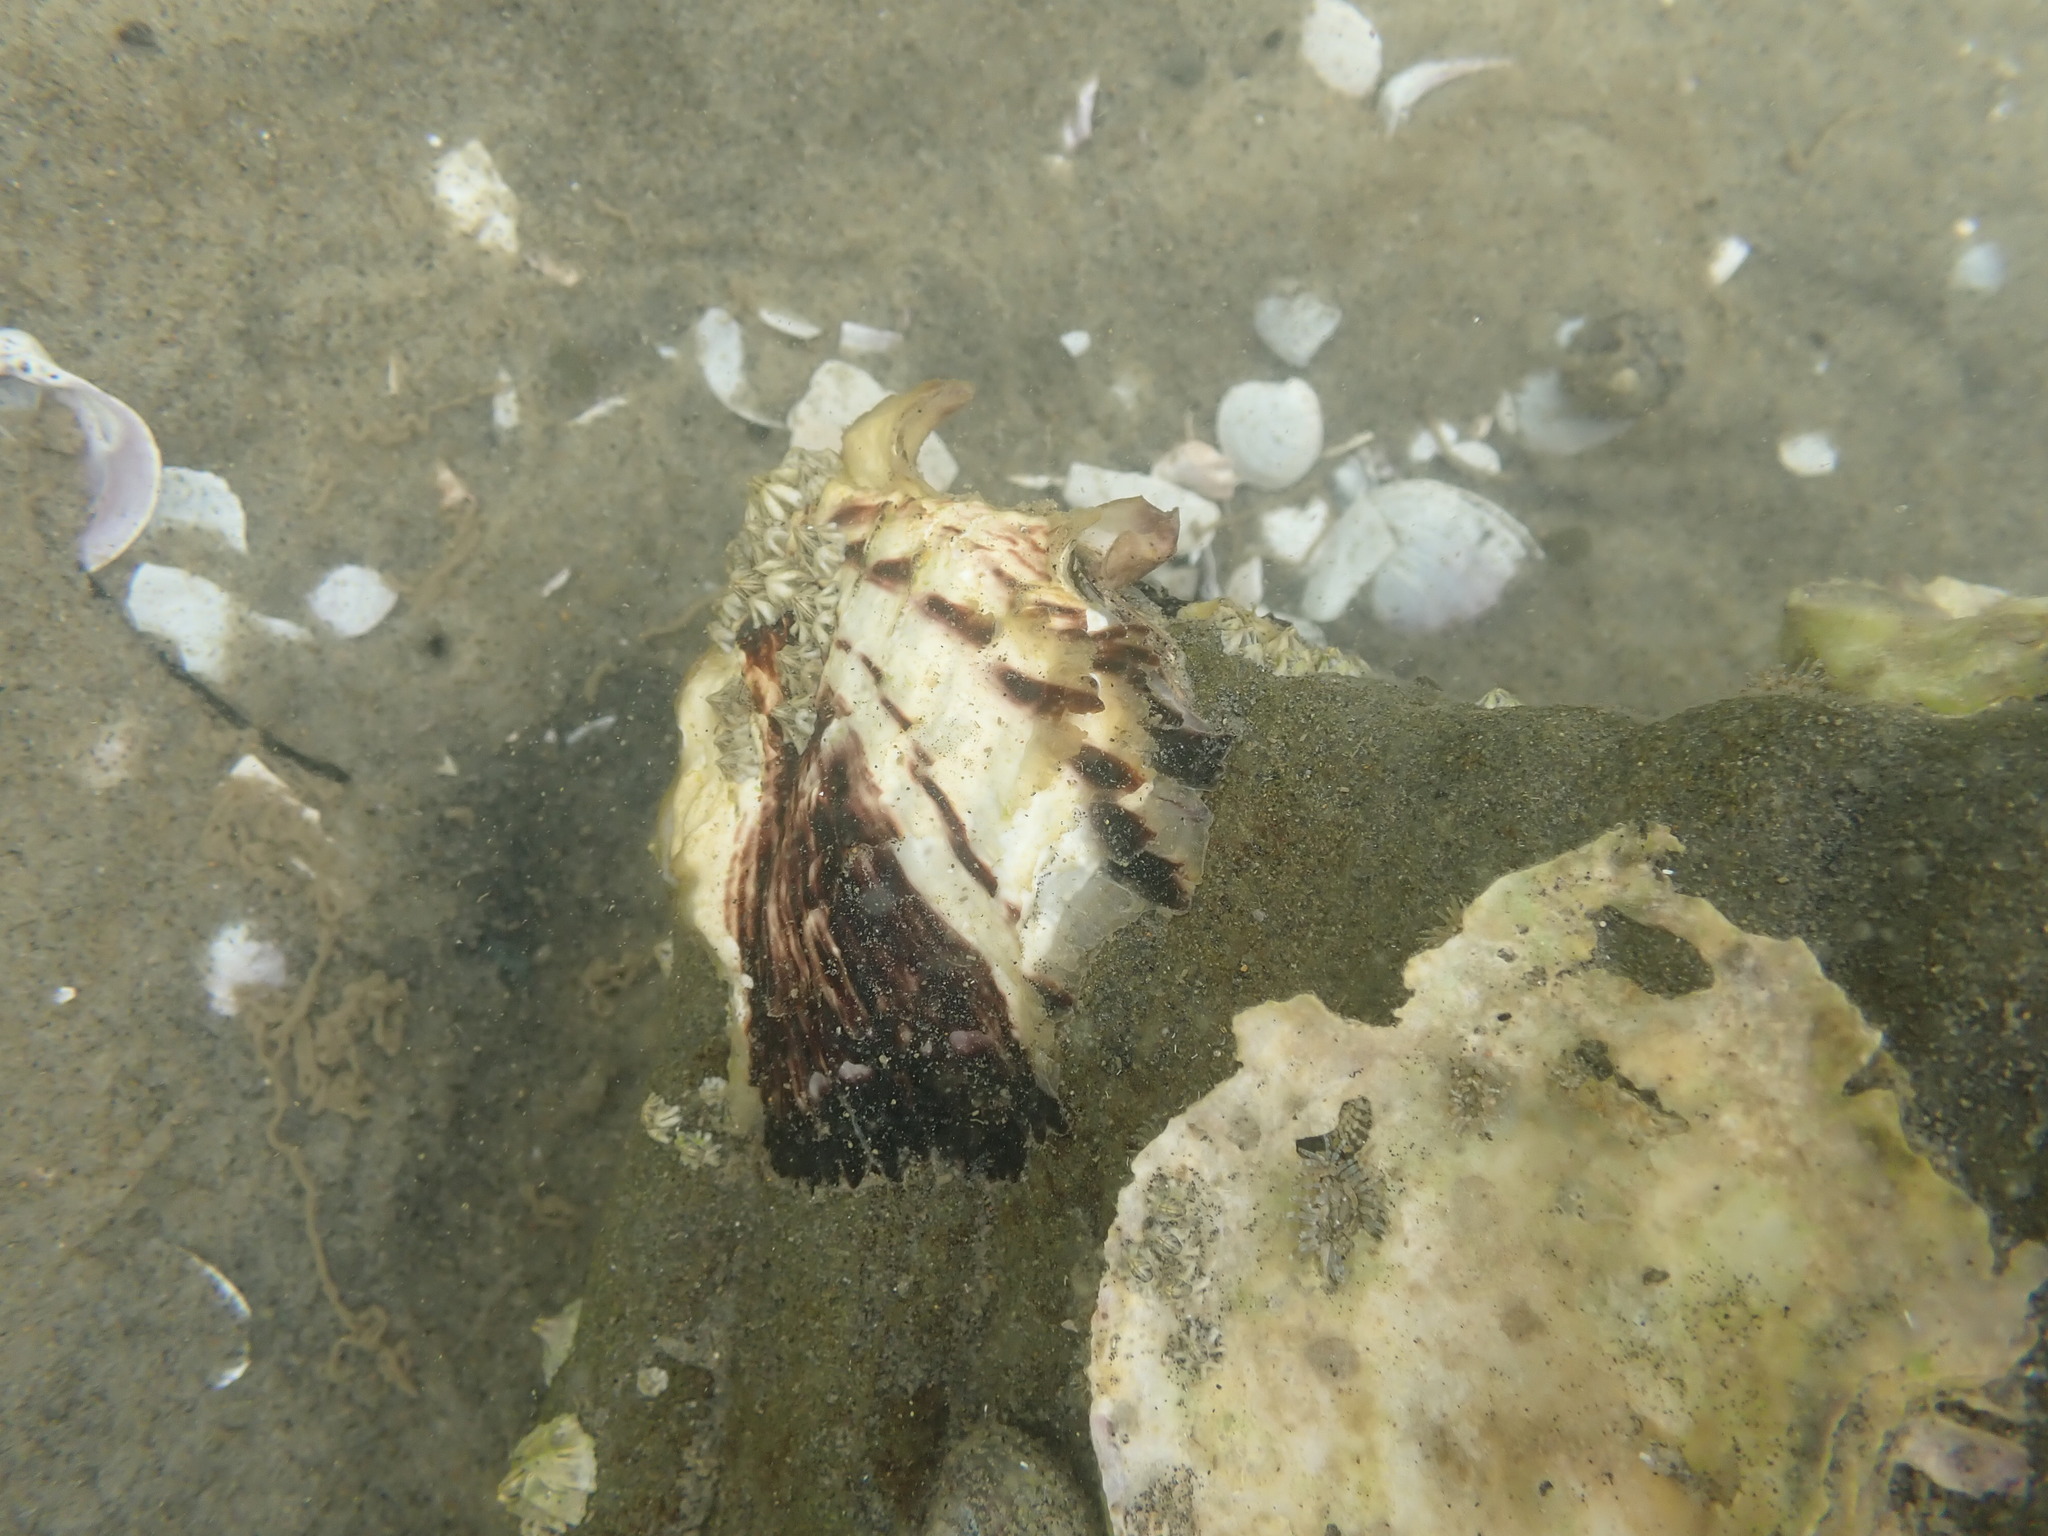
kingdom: Animalia
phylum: Mollusca
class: Bivalvia
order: Ostreida
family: Ostreidae
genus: Magallana
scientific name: Magallana gigas
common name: Pacific oyster
